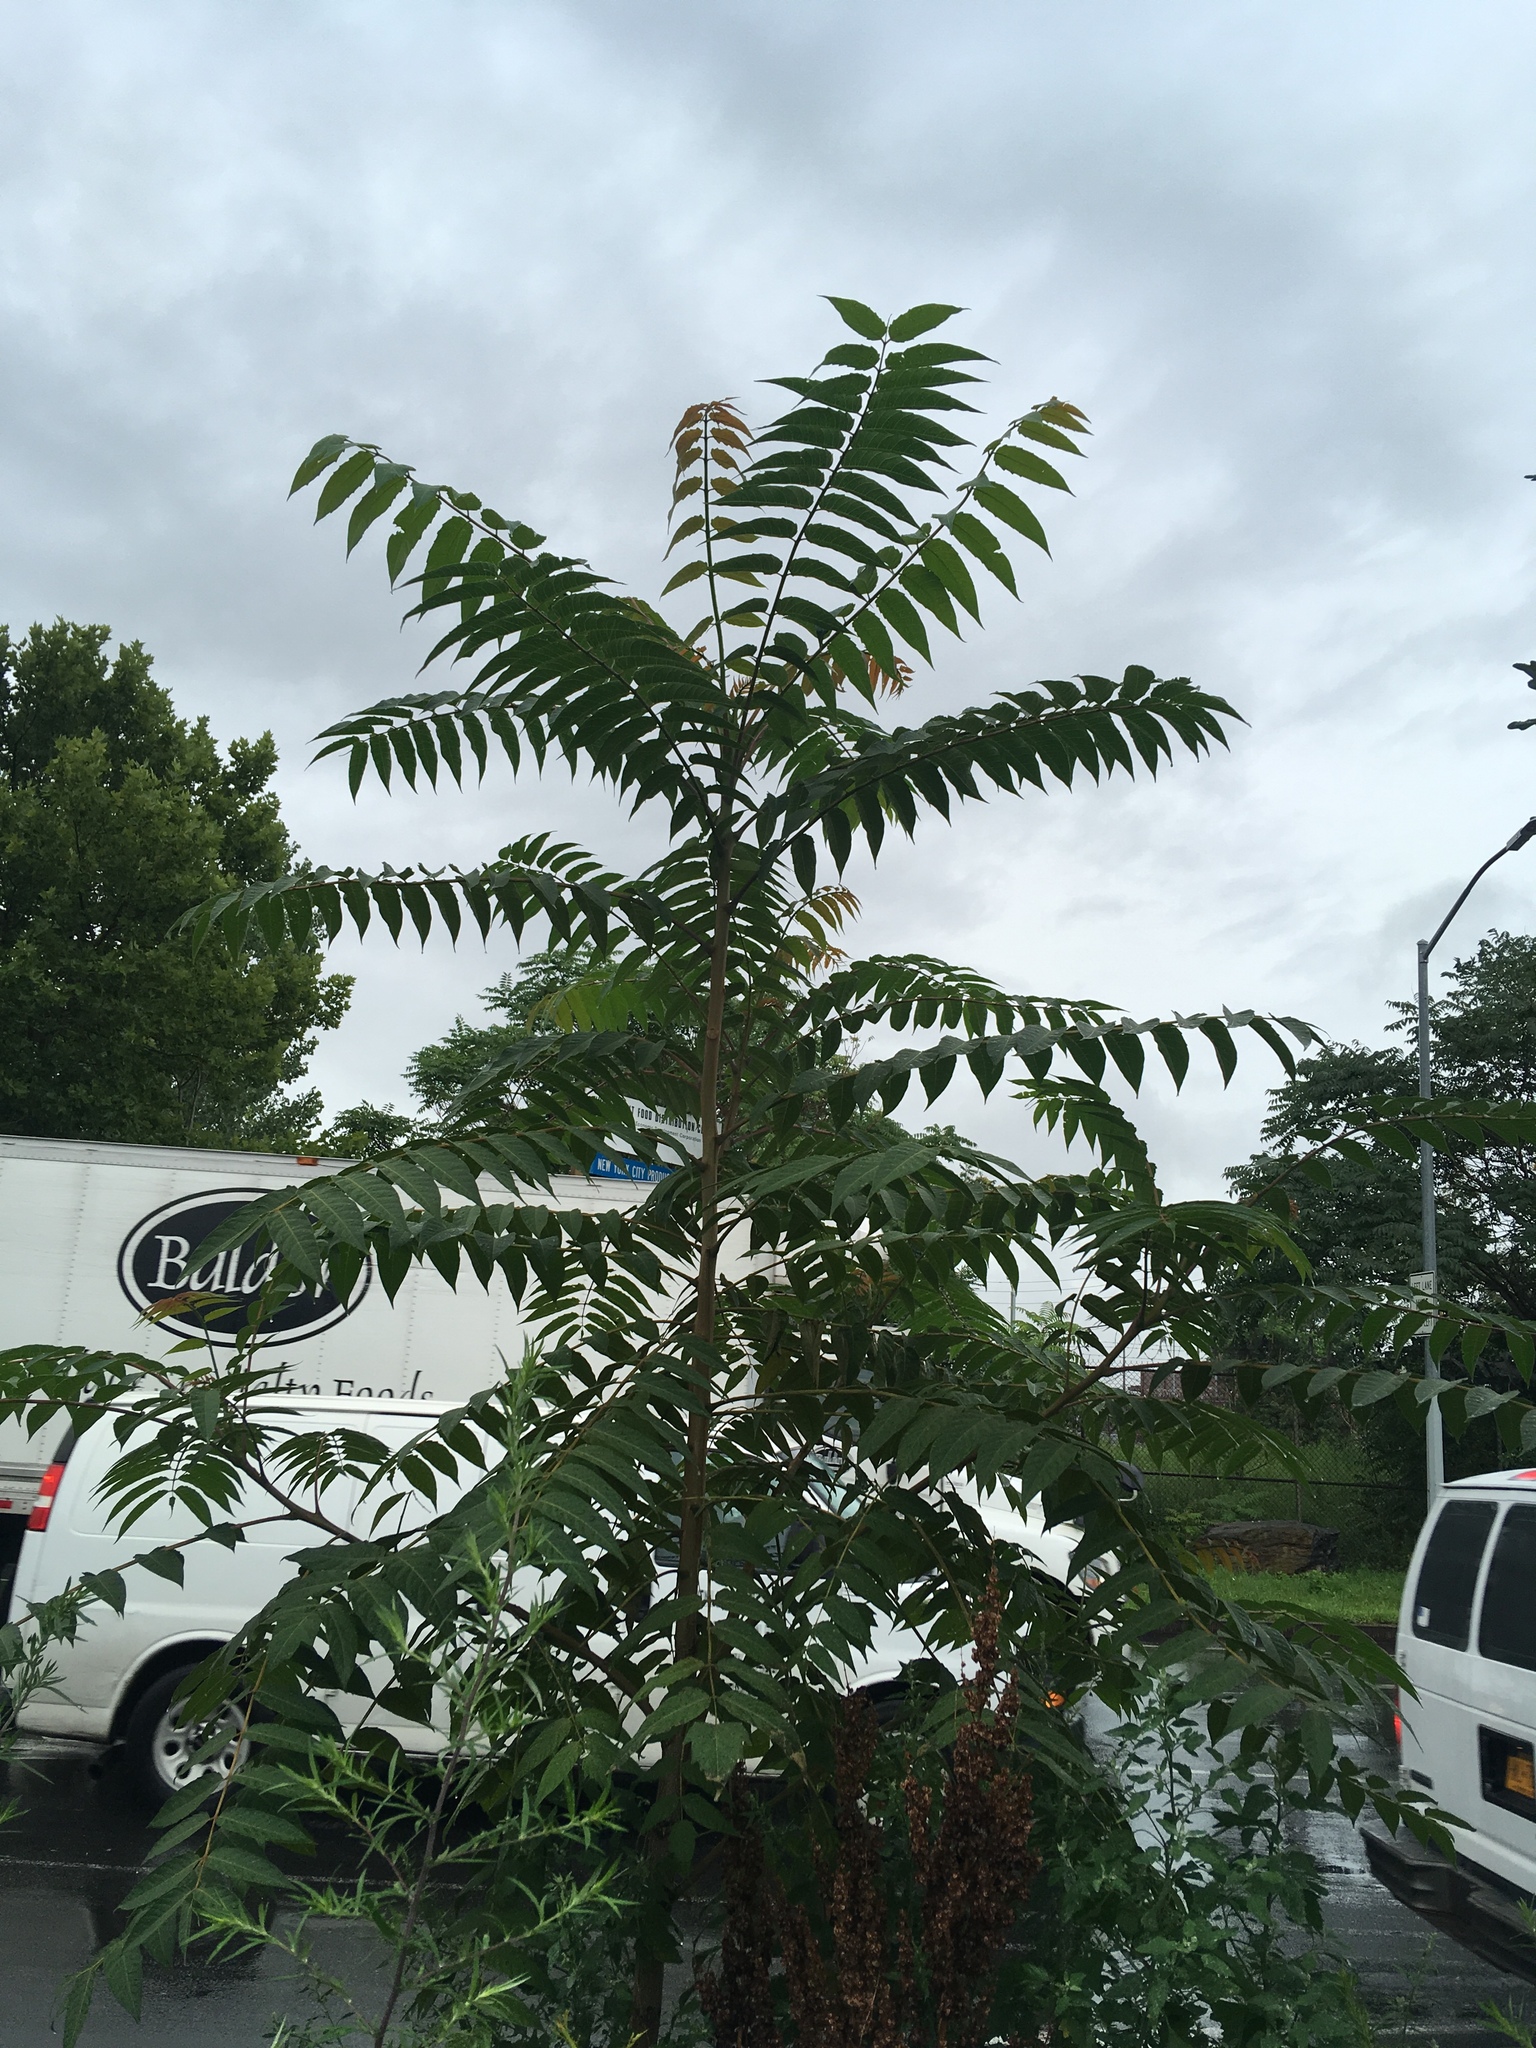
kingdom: Plantae
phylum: Tracheophyta
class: Magnoliopsida
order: Sapindales
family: Simaroubaceae
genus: Ailanthus
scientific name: Ailanthus altissima
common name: Tree-of-heaven
